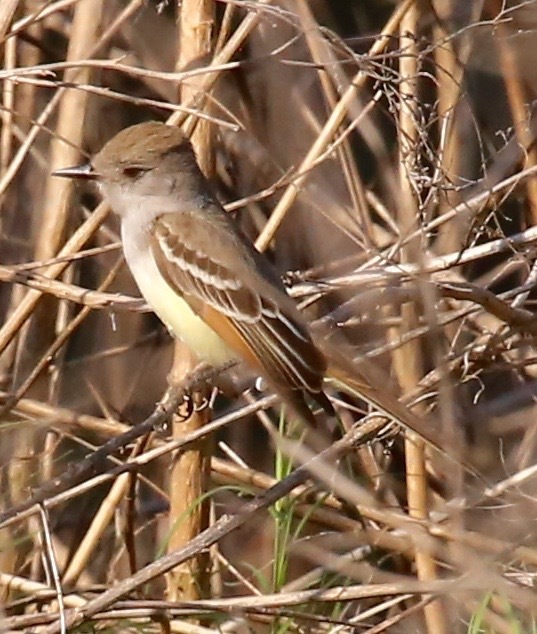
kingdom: Animalia
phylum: Chordata
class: Aves
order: Passeriformes
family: Tyrannidae
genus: Myiarchus
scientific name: Myiarchus cinerascens
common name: Ash-throated flycatcher
